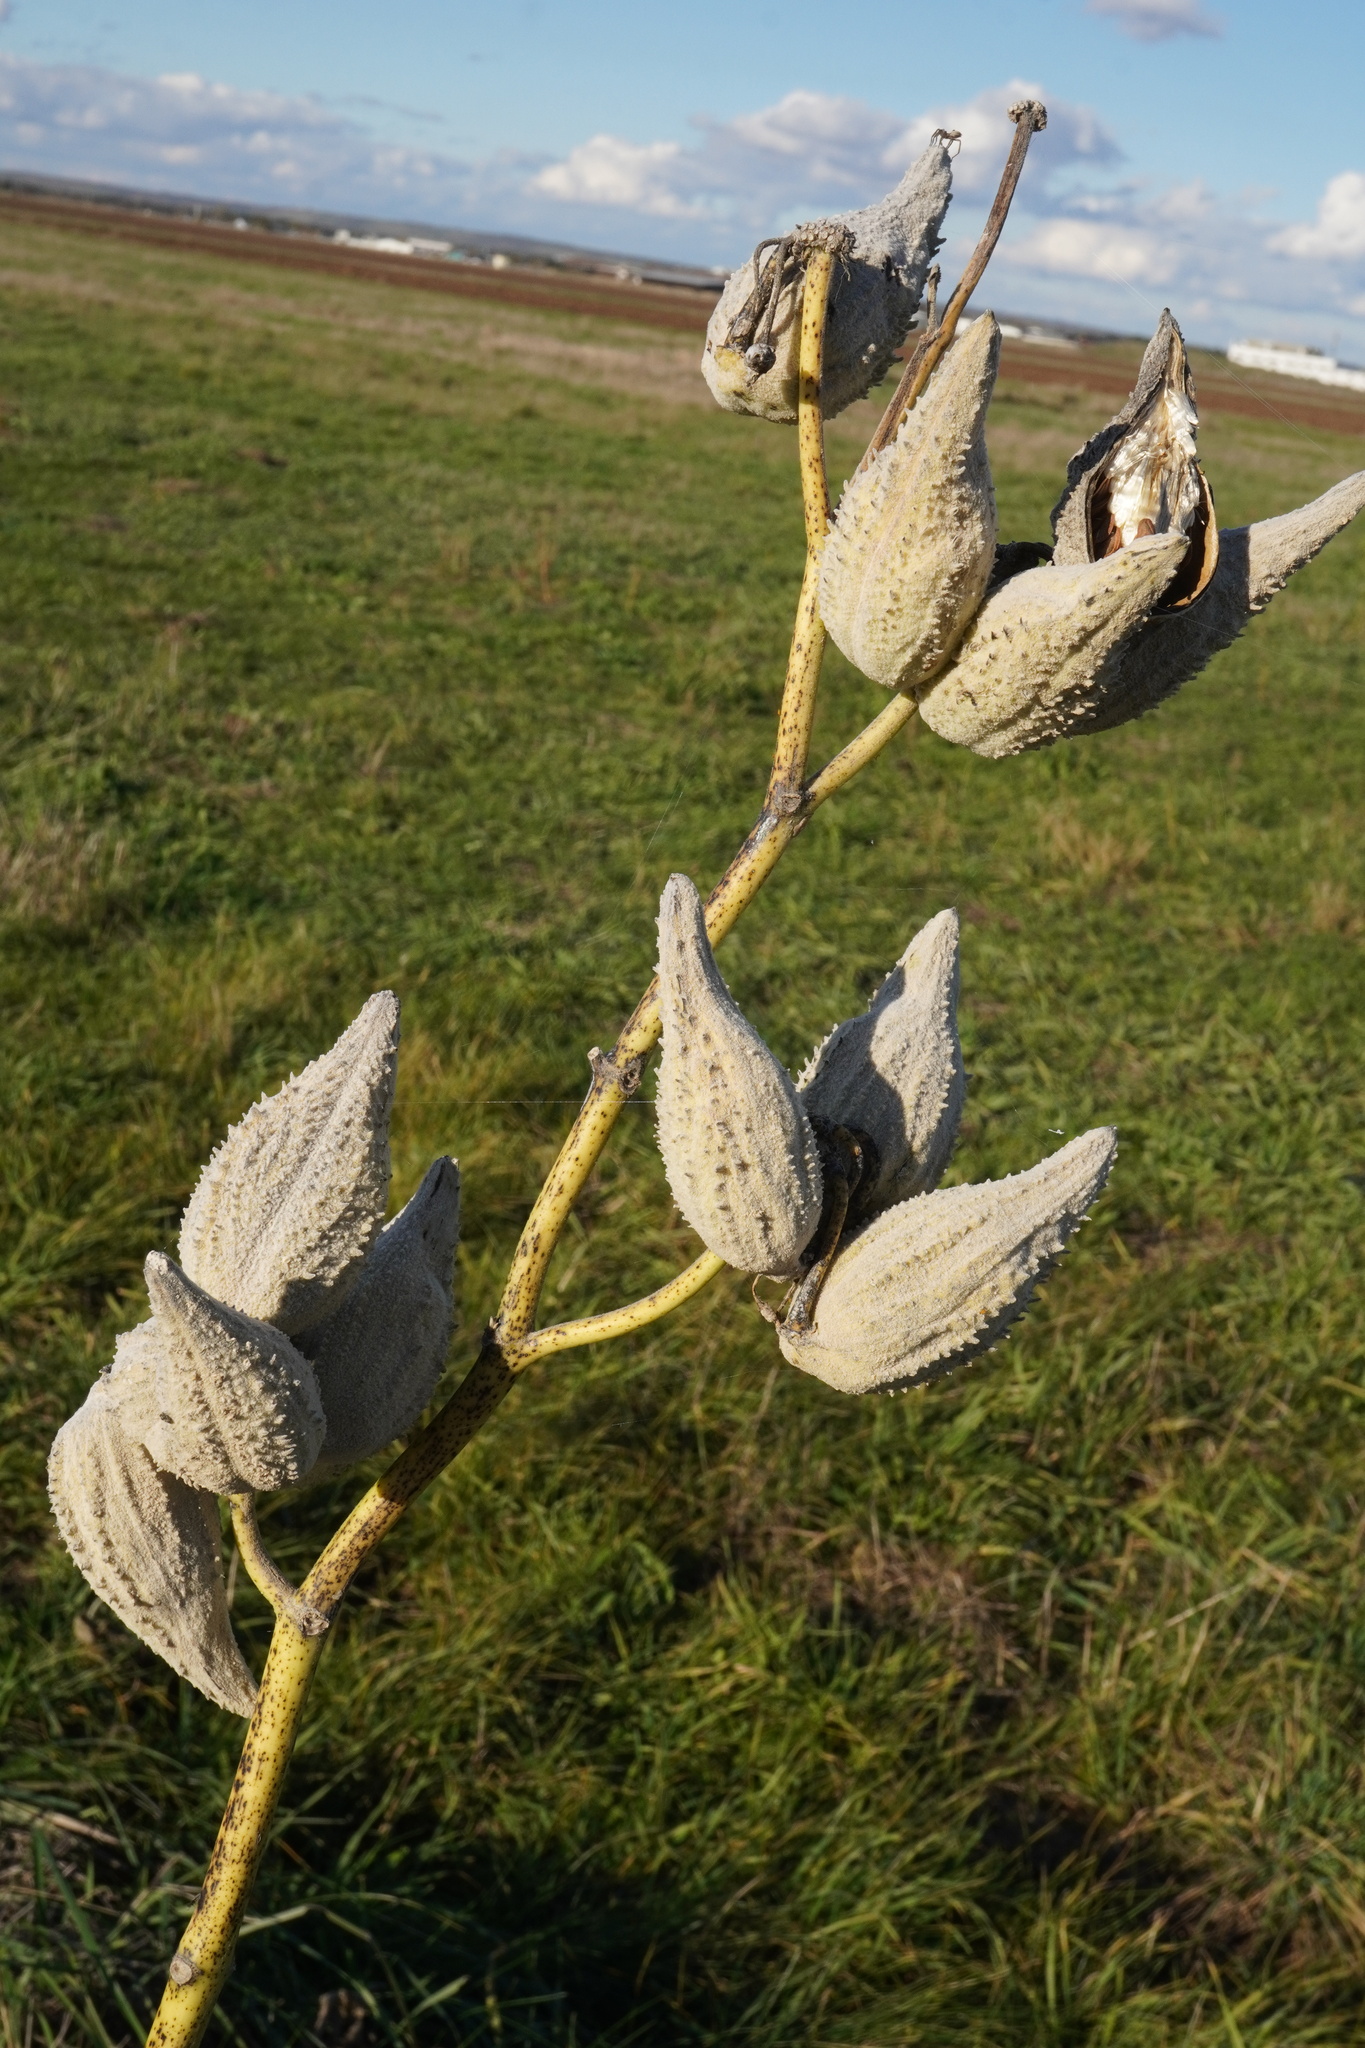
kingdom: Plantae
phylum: Tracheophyta
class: Magnoliopsida
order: Gentianales
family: Apocynaceae
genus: Asclepias
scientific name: Asclepias syriaca
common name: Common milkweed
